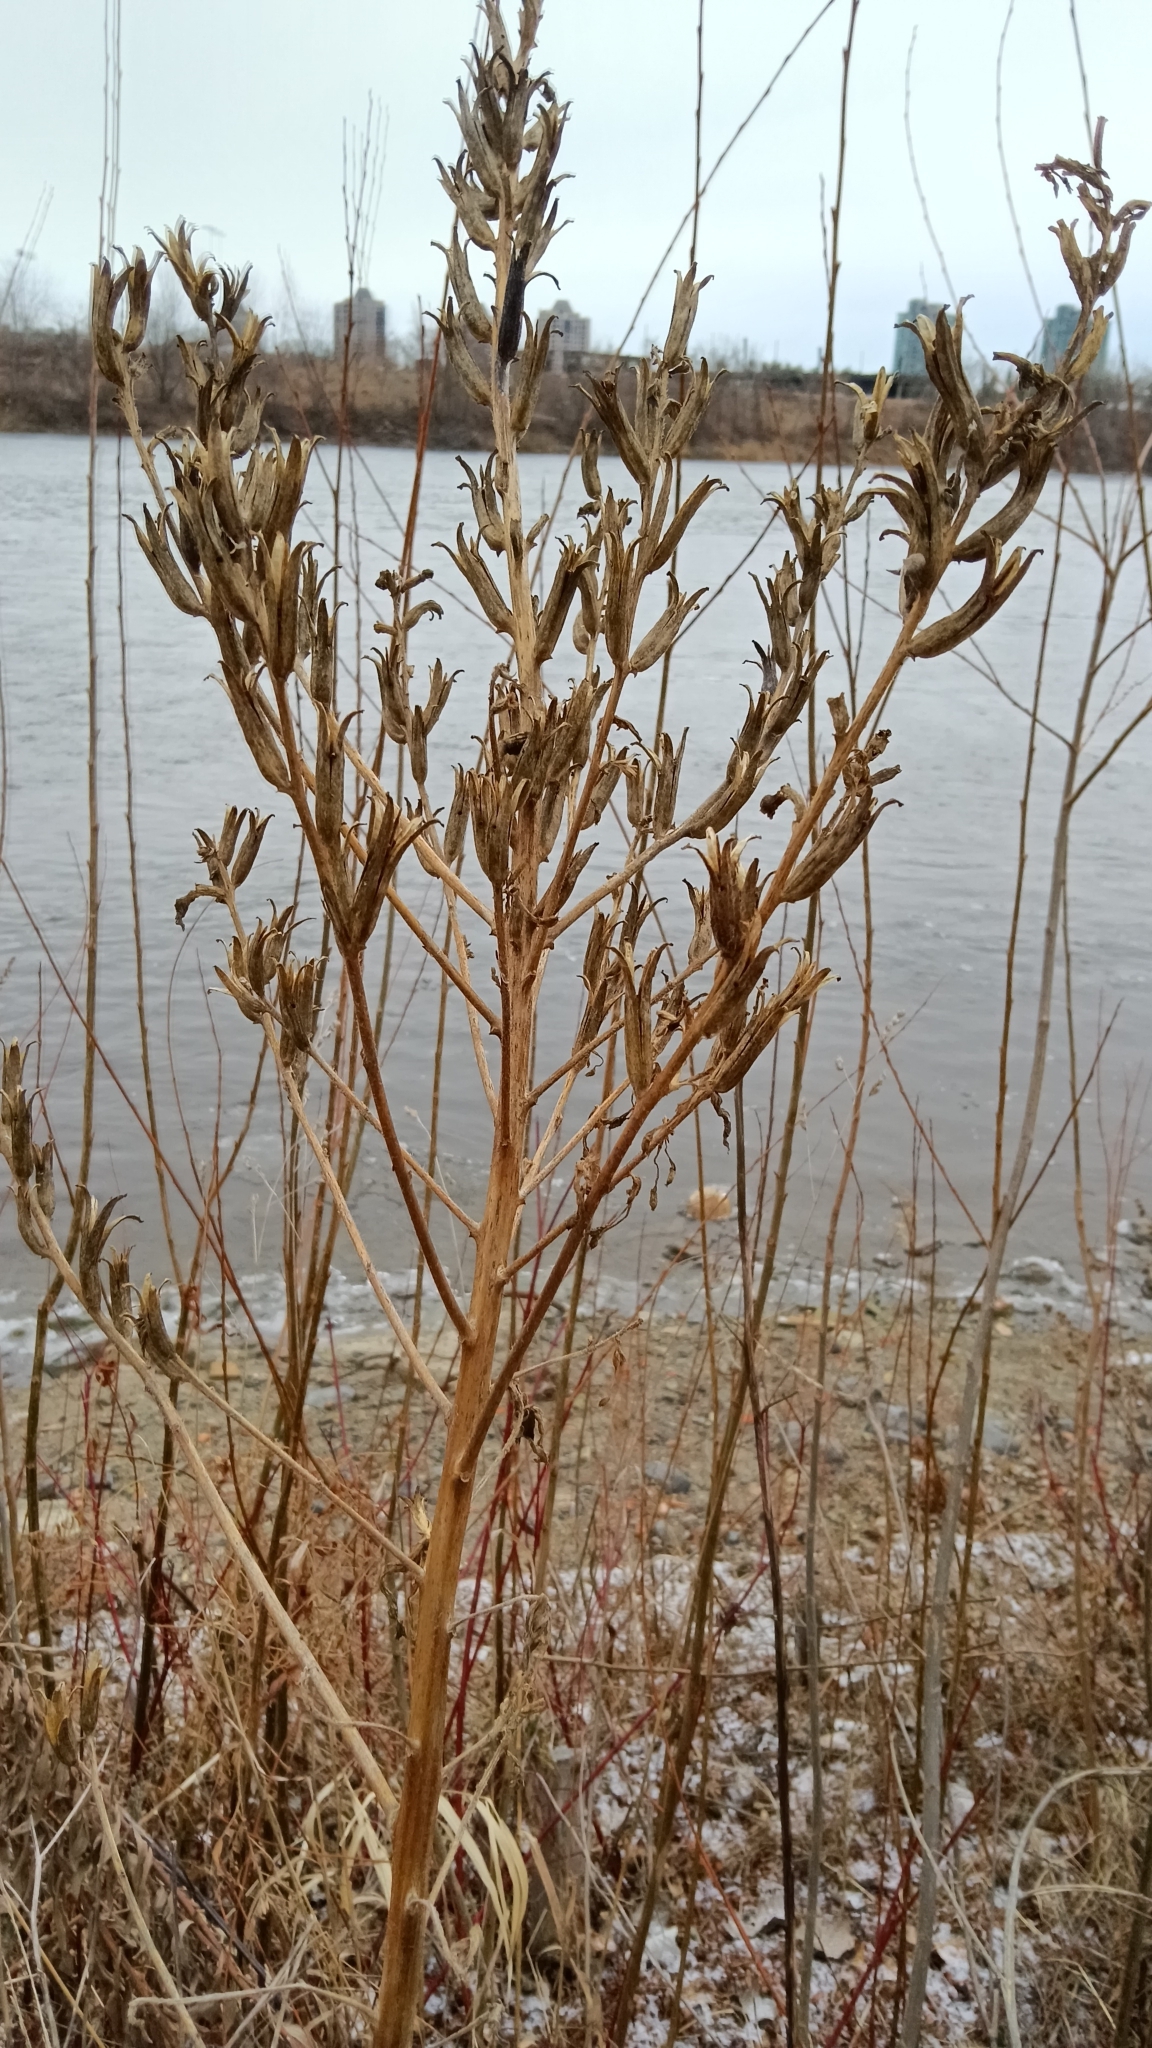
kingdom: Plantae
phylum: Tracheophyta
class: Magnoliopsida
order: Asterales
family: Asteraceae
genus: Cichorium
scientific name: Cichorium intybus
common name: Chicory
